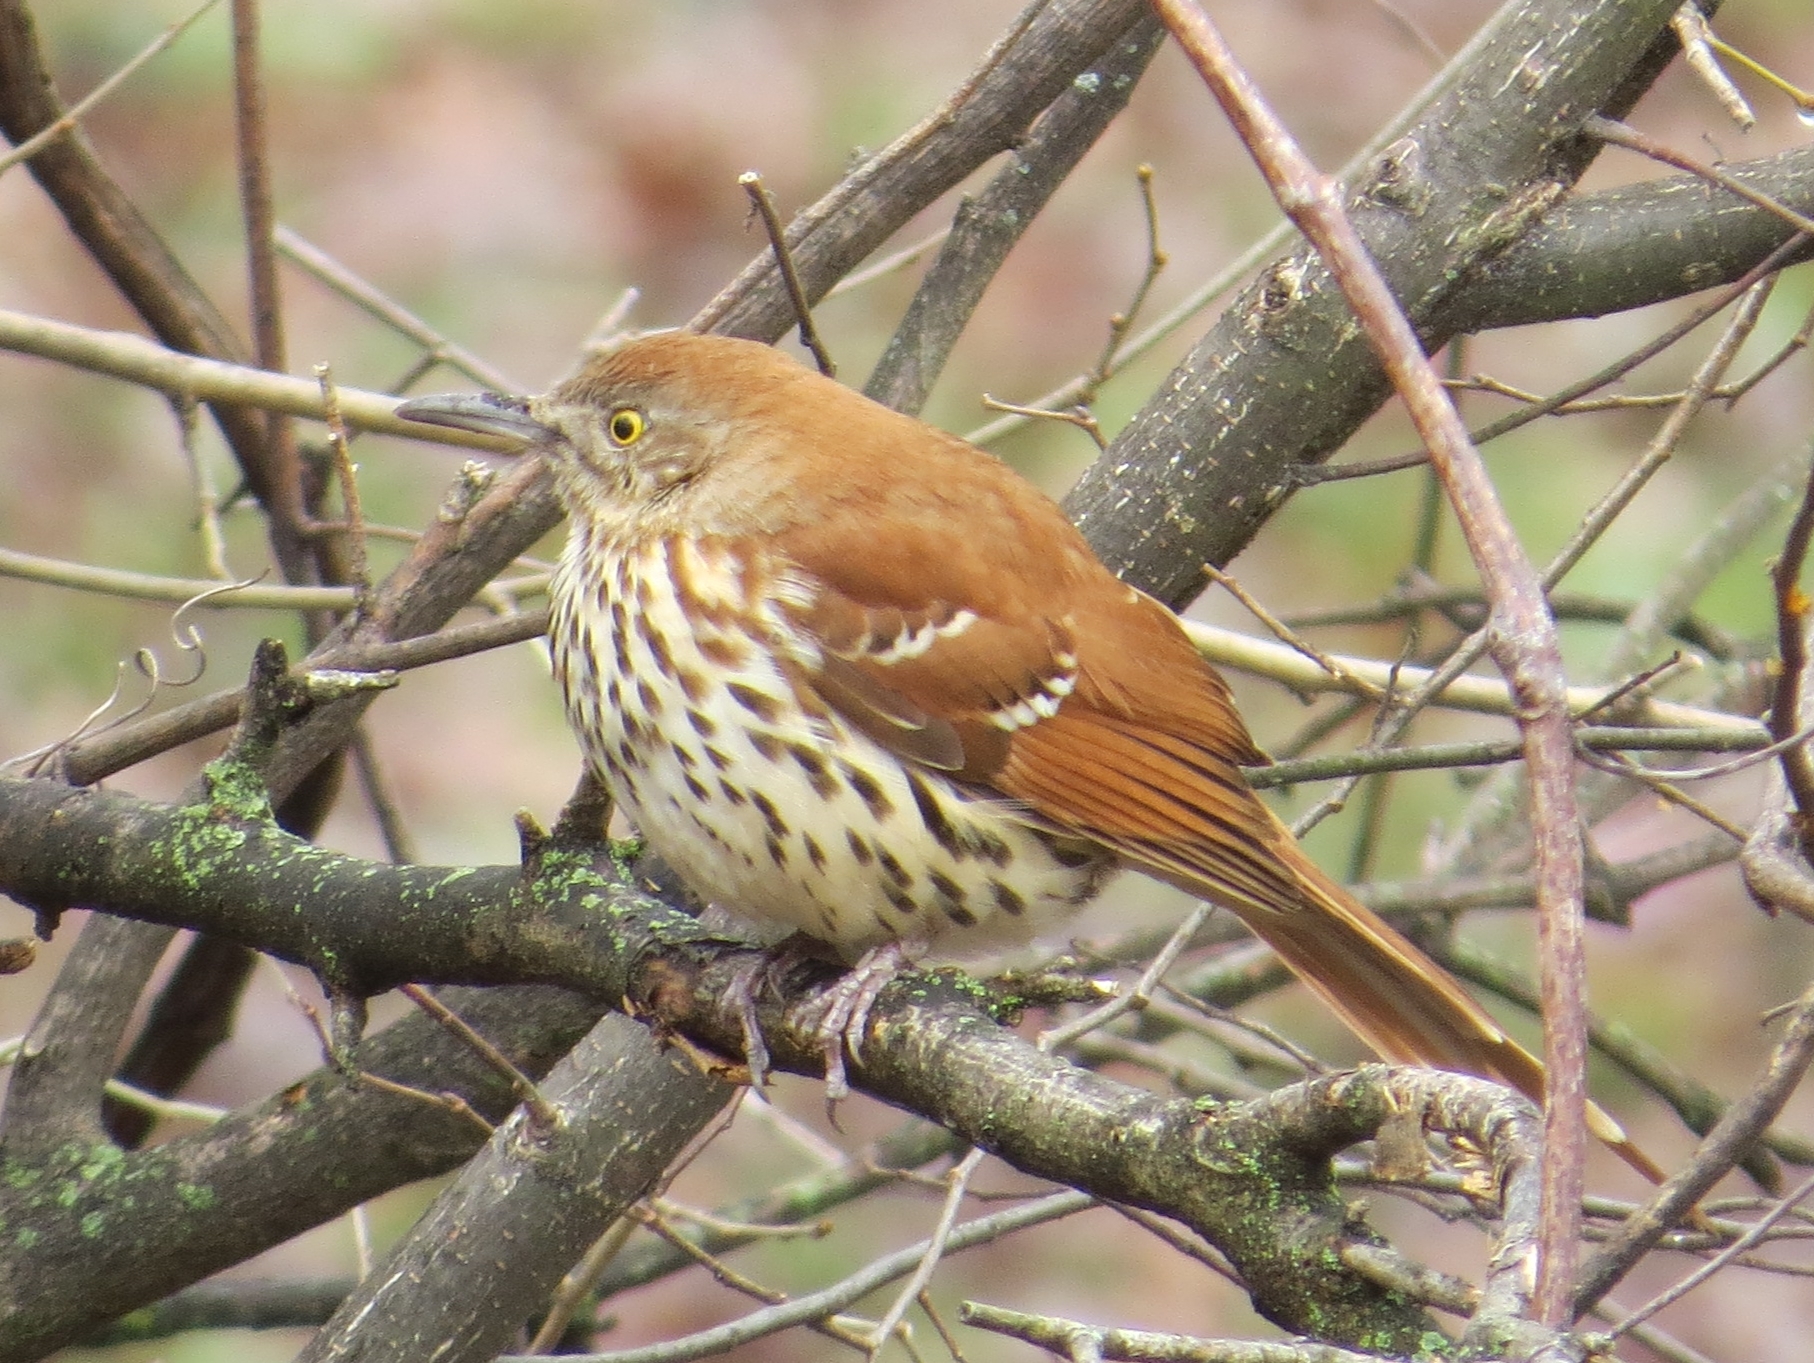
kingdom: Animalia
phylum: Chordata
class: Aves
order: Passeriformes
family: Mimidae
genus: Toxostoma
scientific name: Toxostoma rufum
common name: Brown thrasher
